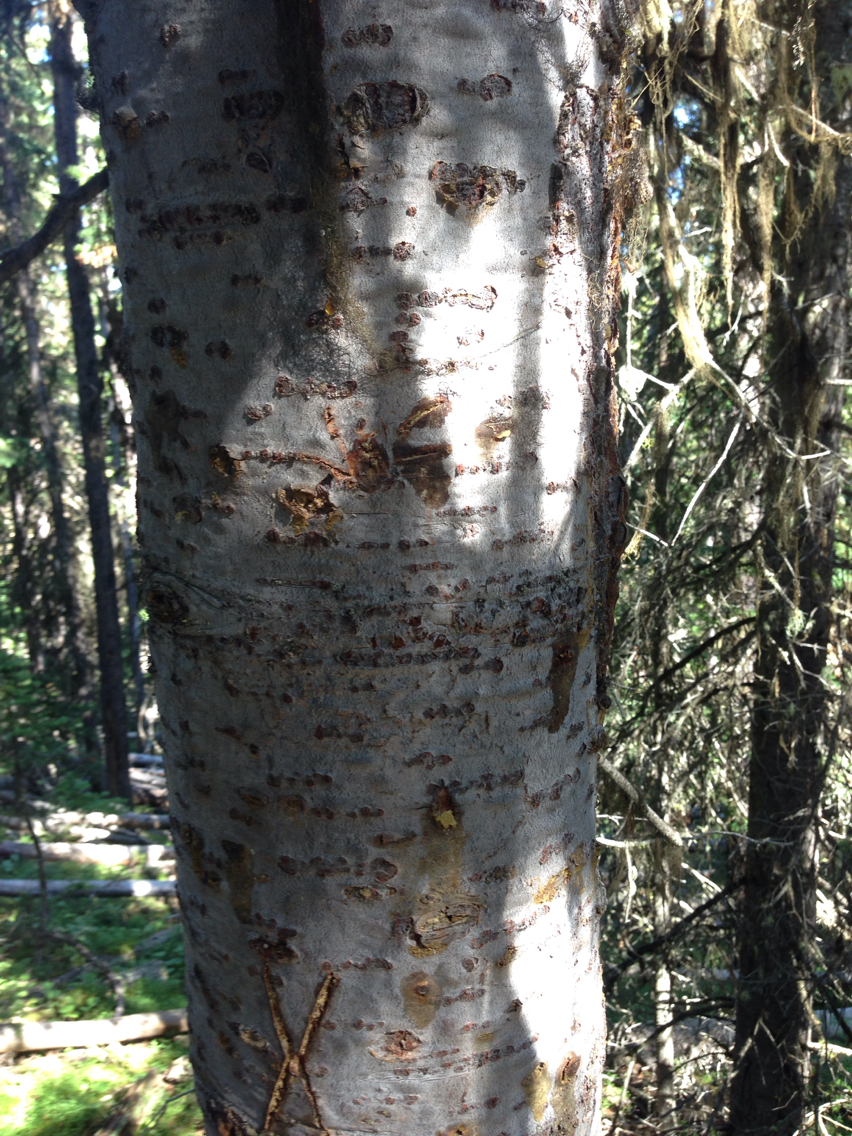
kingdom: Plantae
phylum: Tracheophyta
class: Pinopsida
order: Pinales
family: Pinaceae
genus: Abies
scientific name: Abies lasiocarpa
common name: Subalpine fir
